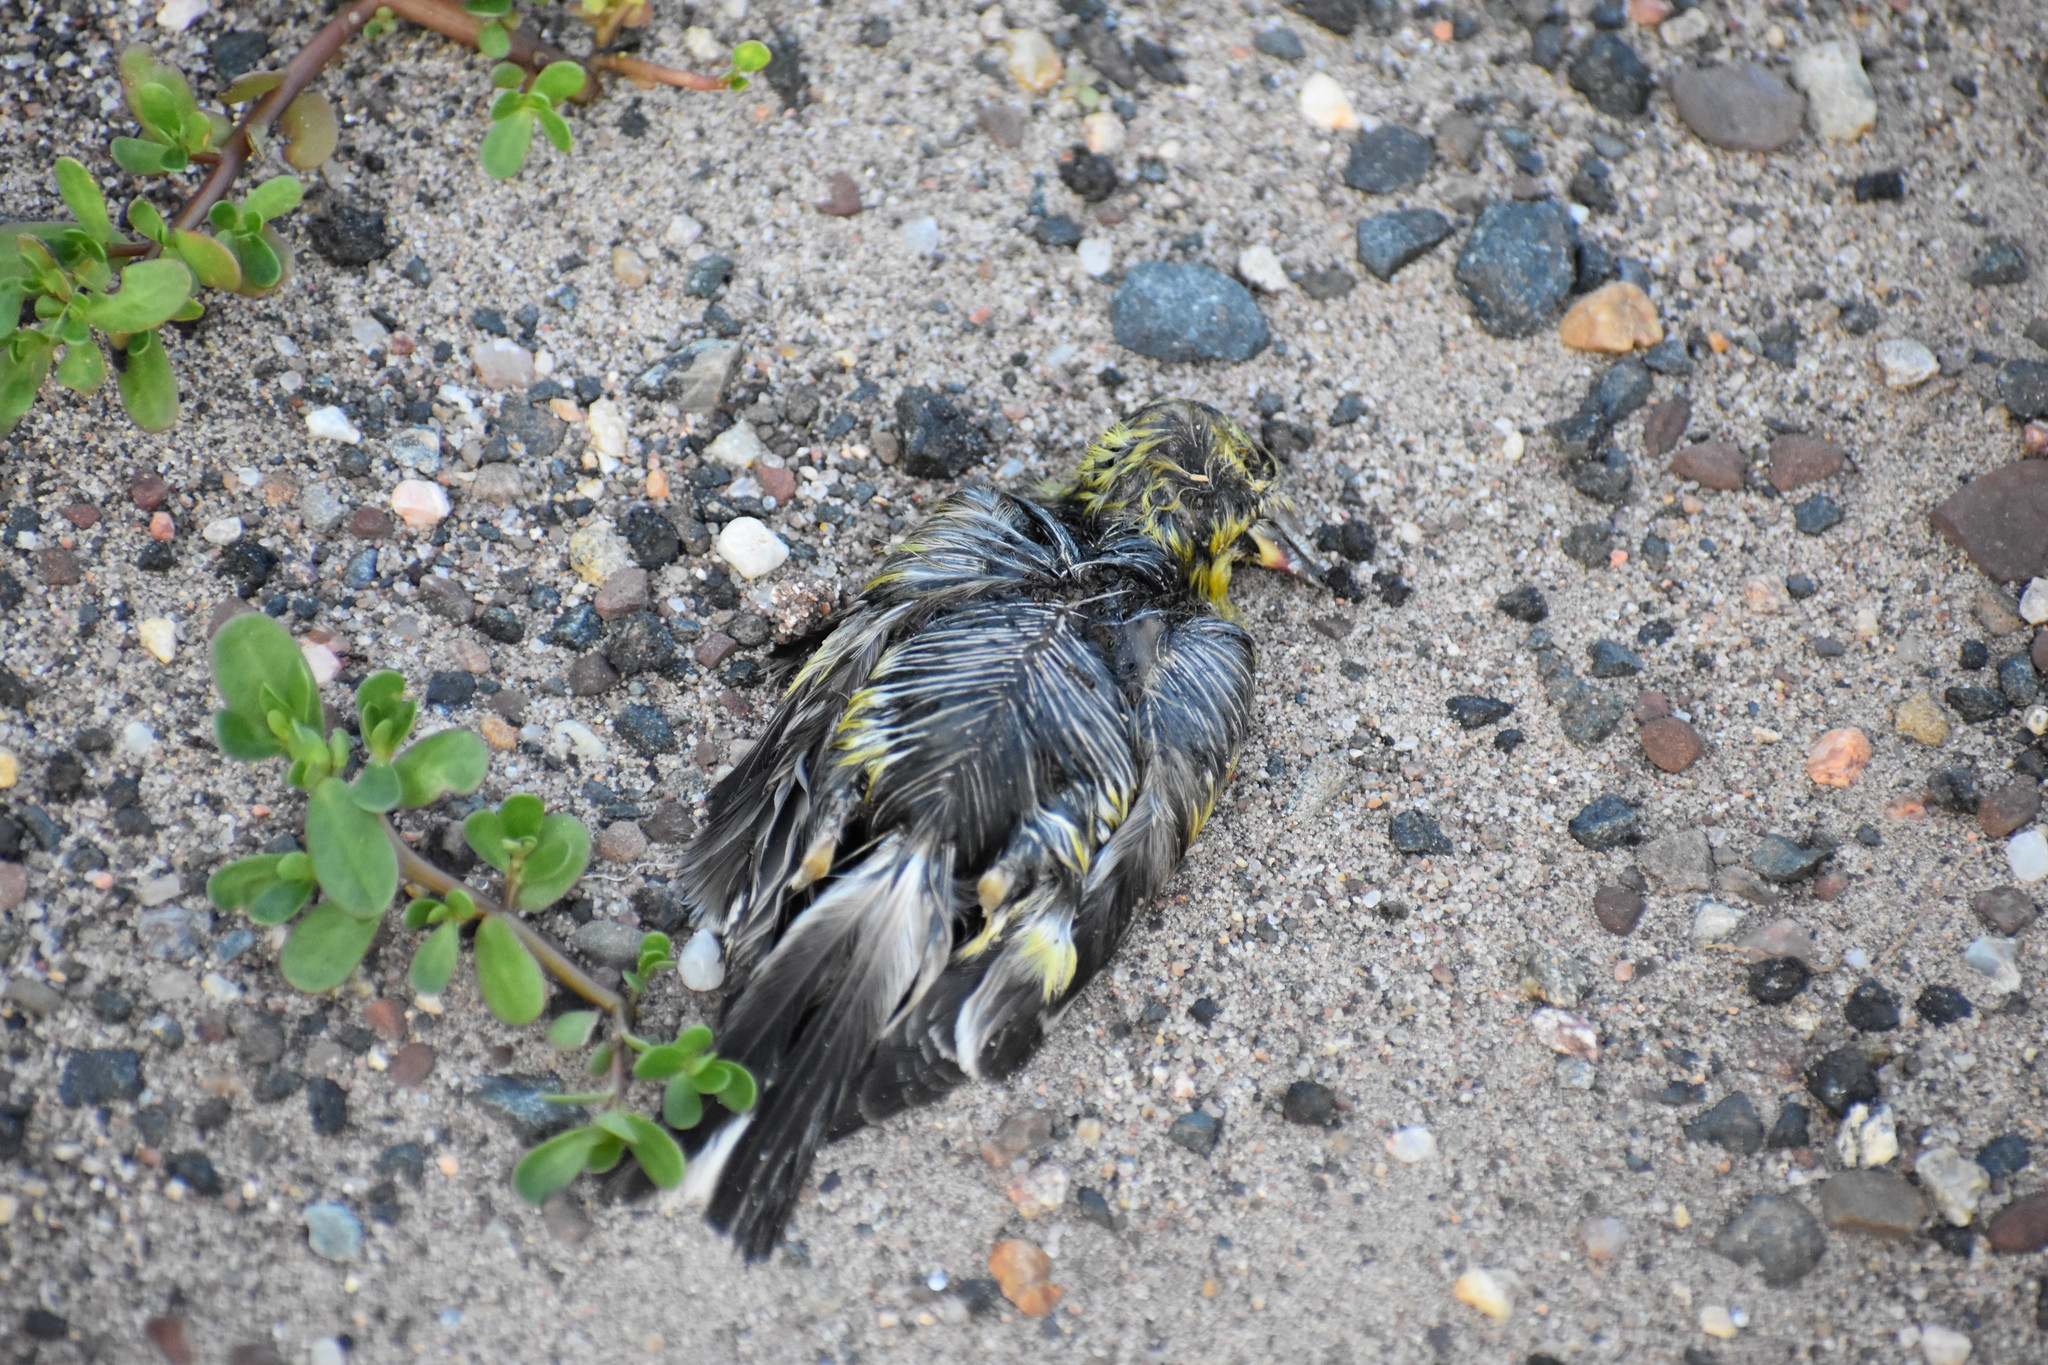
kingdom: Animalia
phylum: Chordata
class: Aves
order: Passeriformes
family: Fringillidae
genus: Spinus
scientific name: Spinus tristis
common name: American goldfinch
